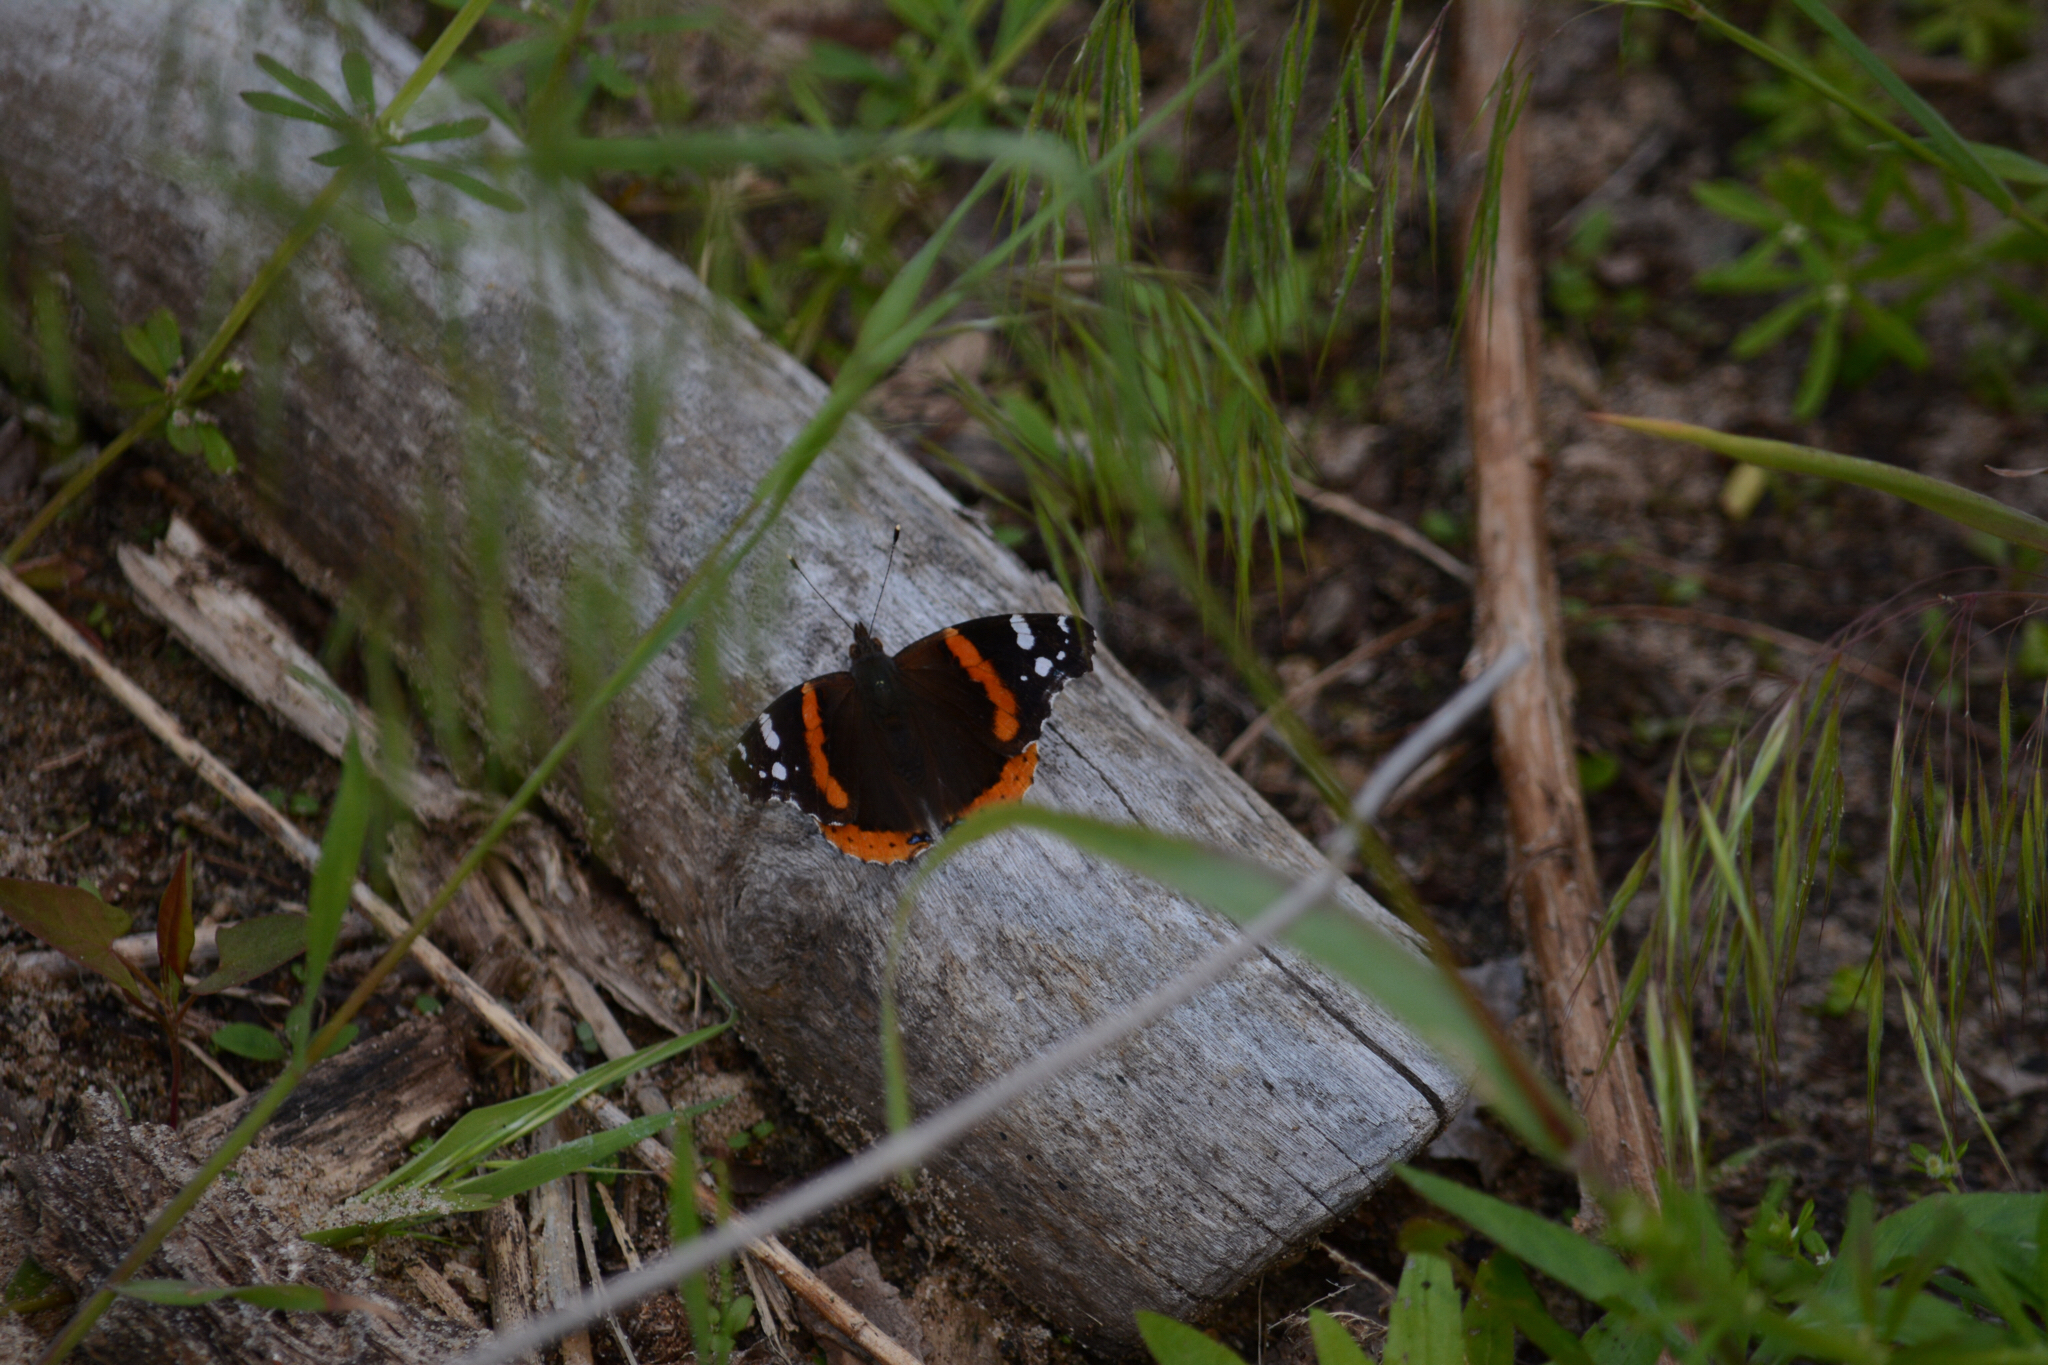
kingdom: Animalia
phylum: Arthropoda
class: Insecta
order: Lepidoptera
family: Nymphalidae
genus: Vanessa
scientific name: Vanessa atalanta
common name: Red admiral
